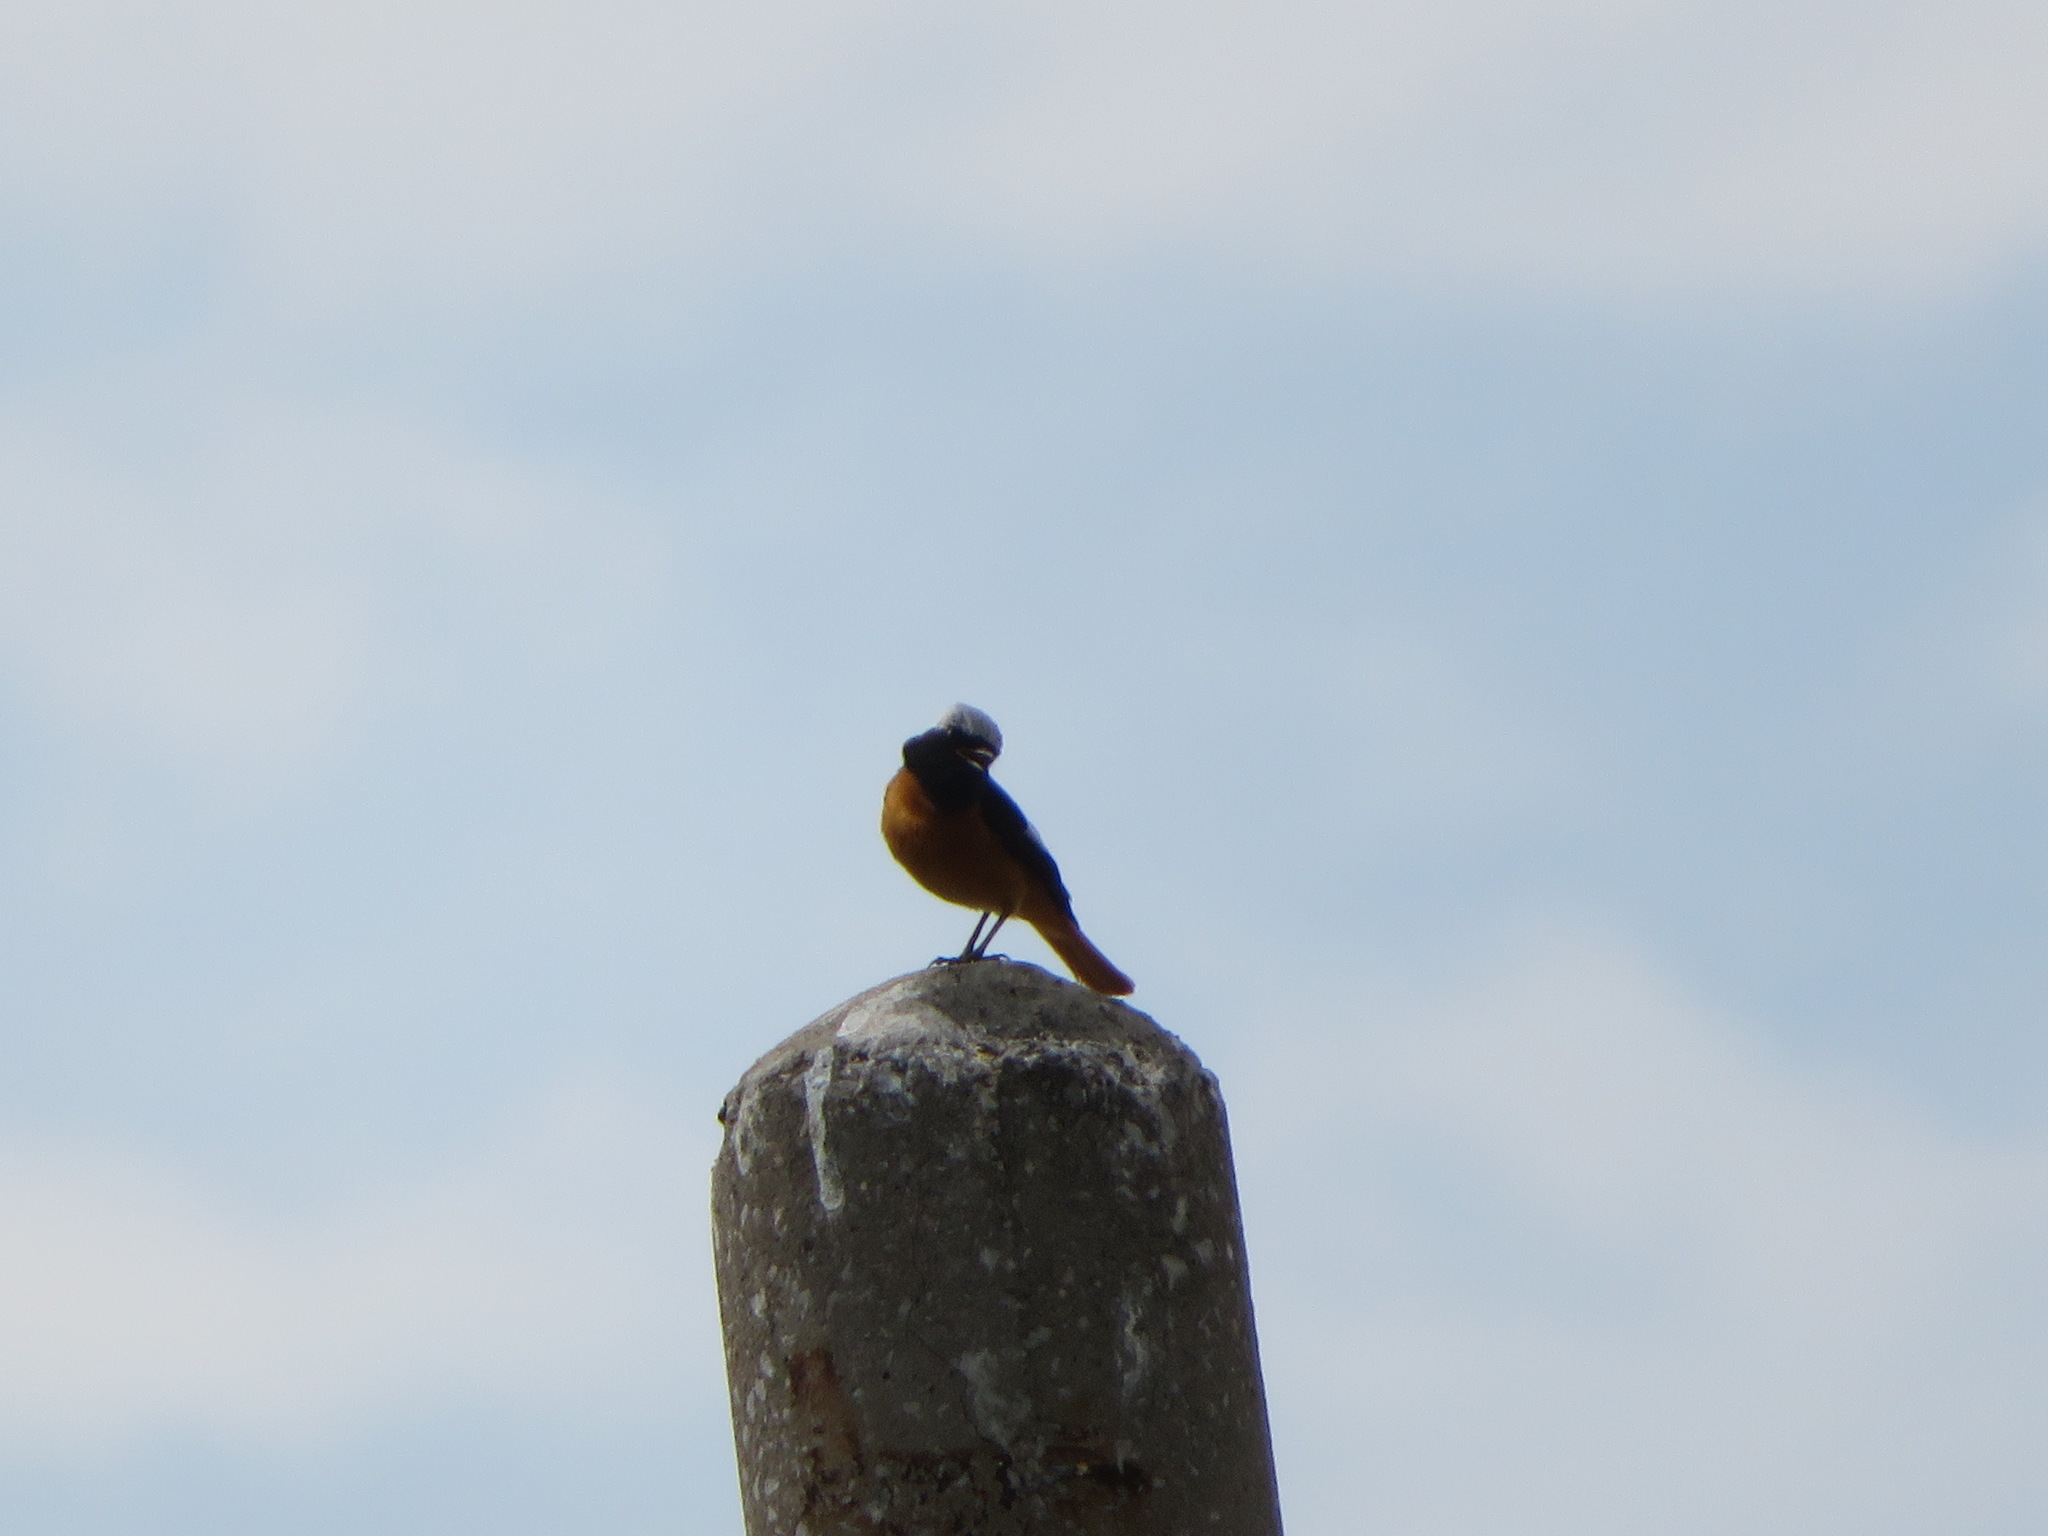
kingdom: Animalia
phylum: Chordata
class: Aves
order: Passeriformes
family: Muscicapidae
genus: Phoenicurus
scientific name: Phoenicurus auroreus
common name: Daurian redstart
